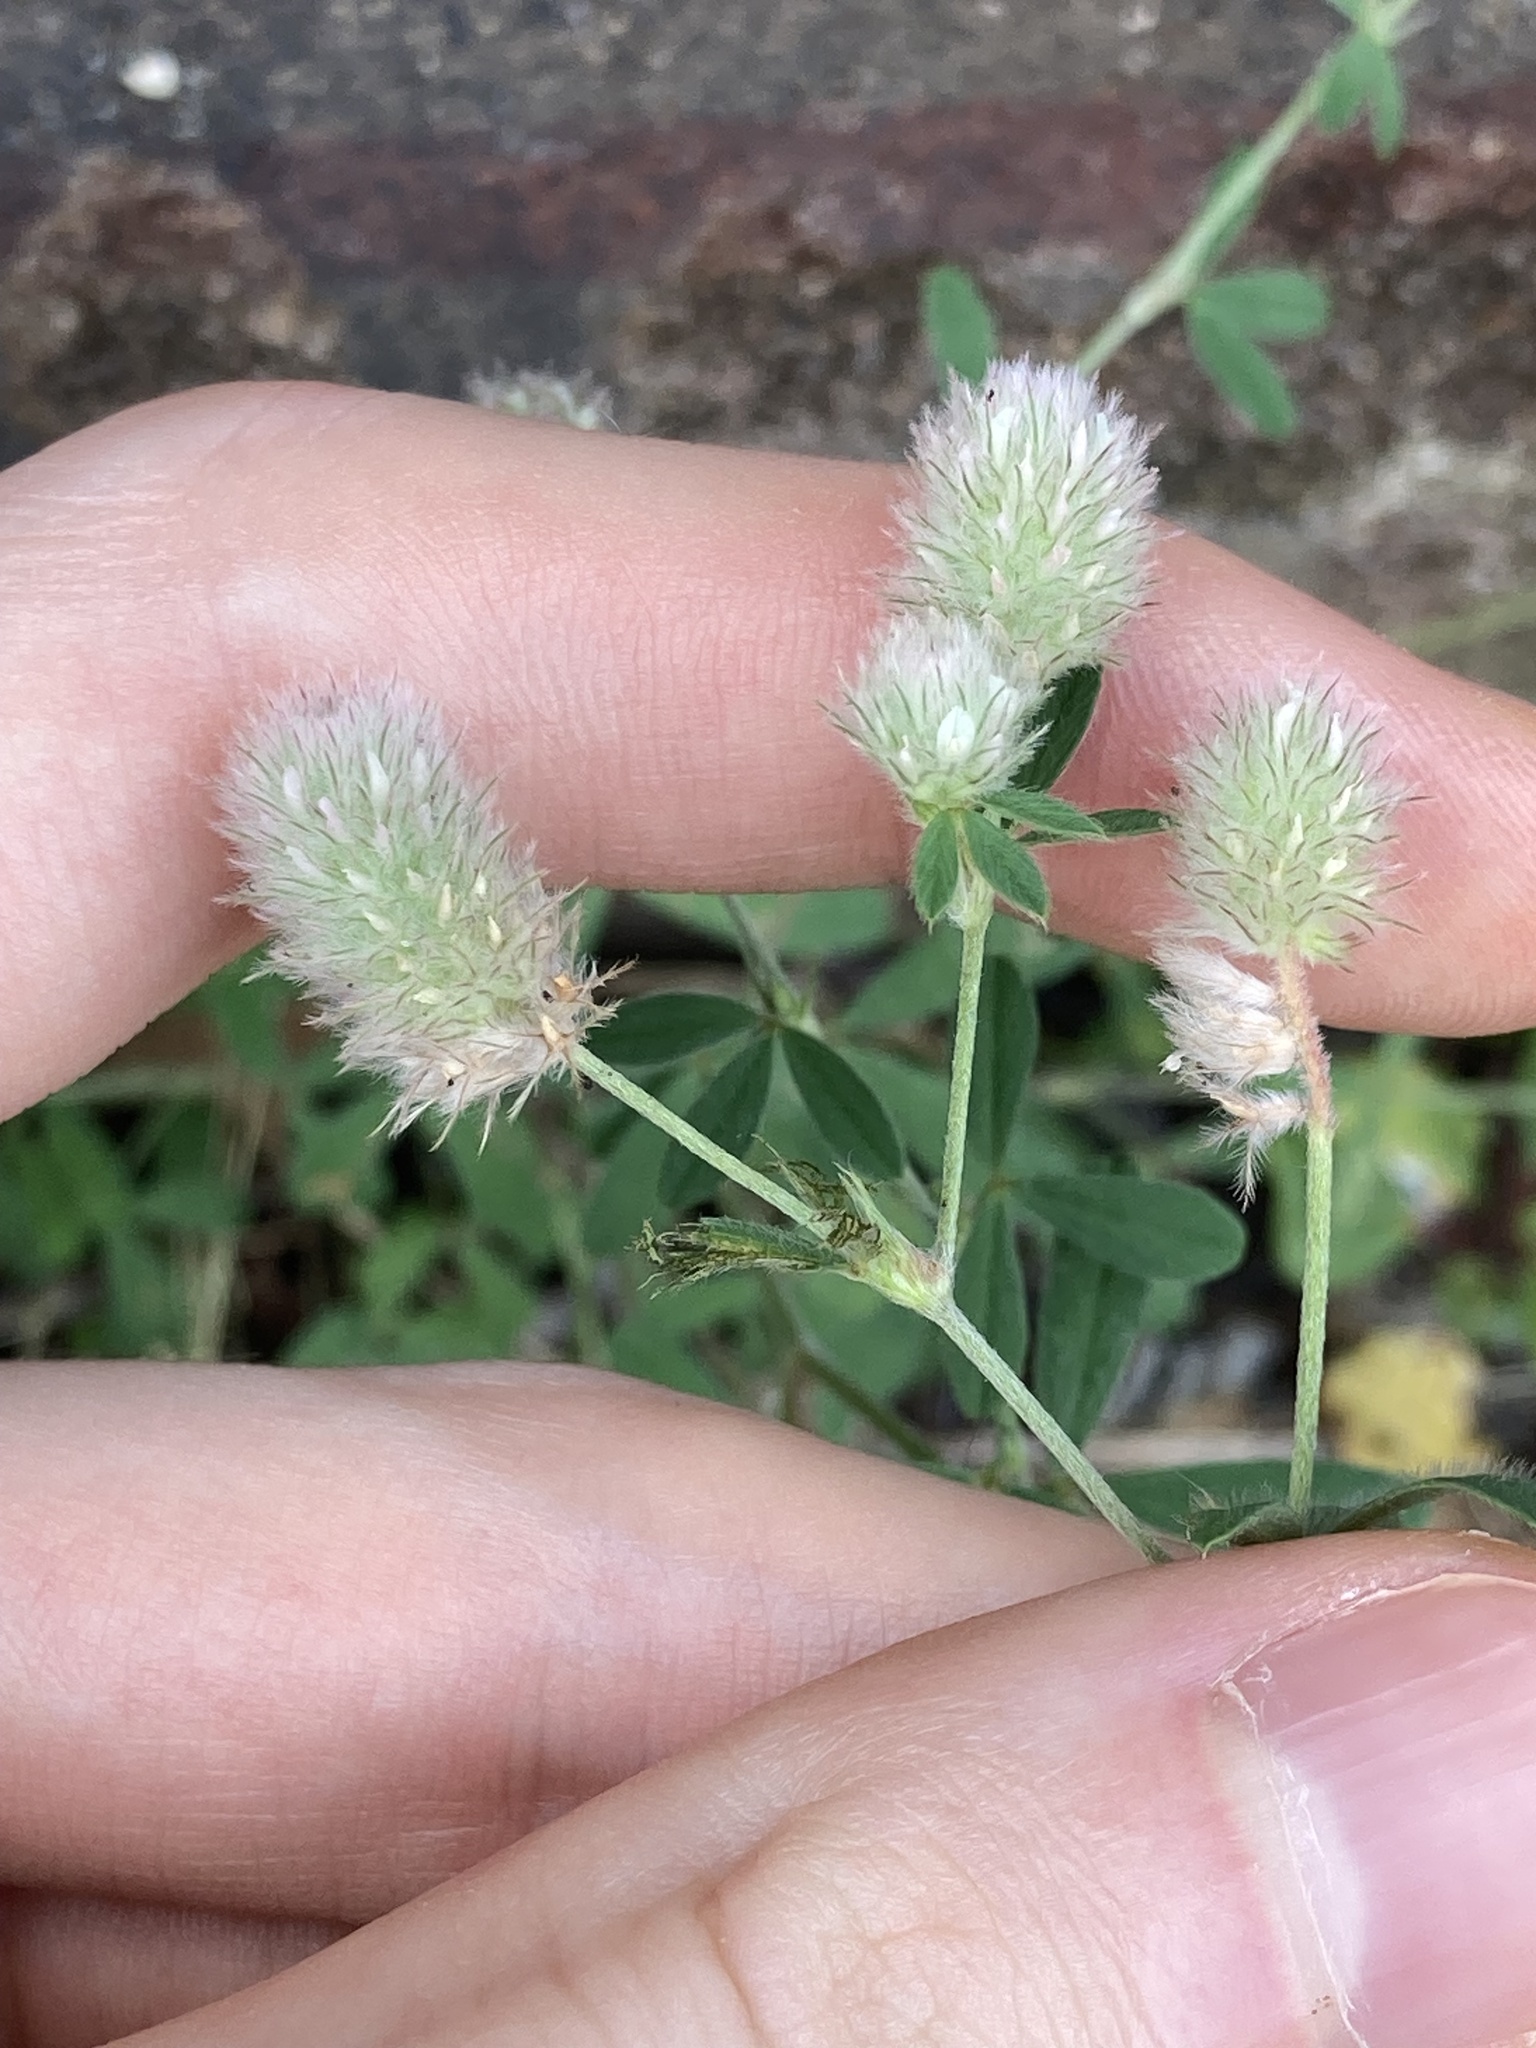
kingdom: Plantae
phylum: Tracheophyta
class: Magnoliopsida
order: Fabales
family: Fabaceae
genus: Trifolium
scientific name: Trifolium arvense
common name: Hare's-foot clover
